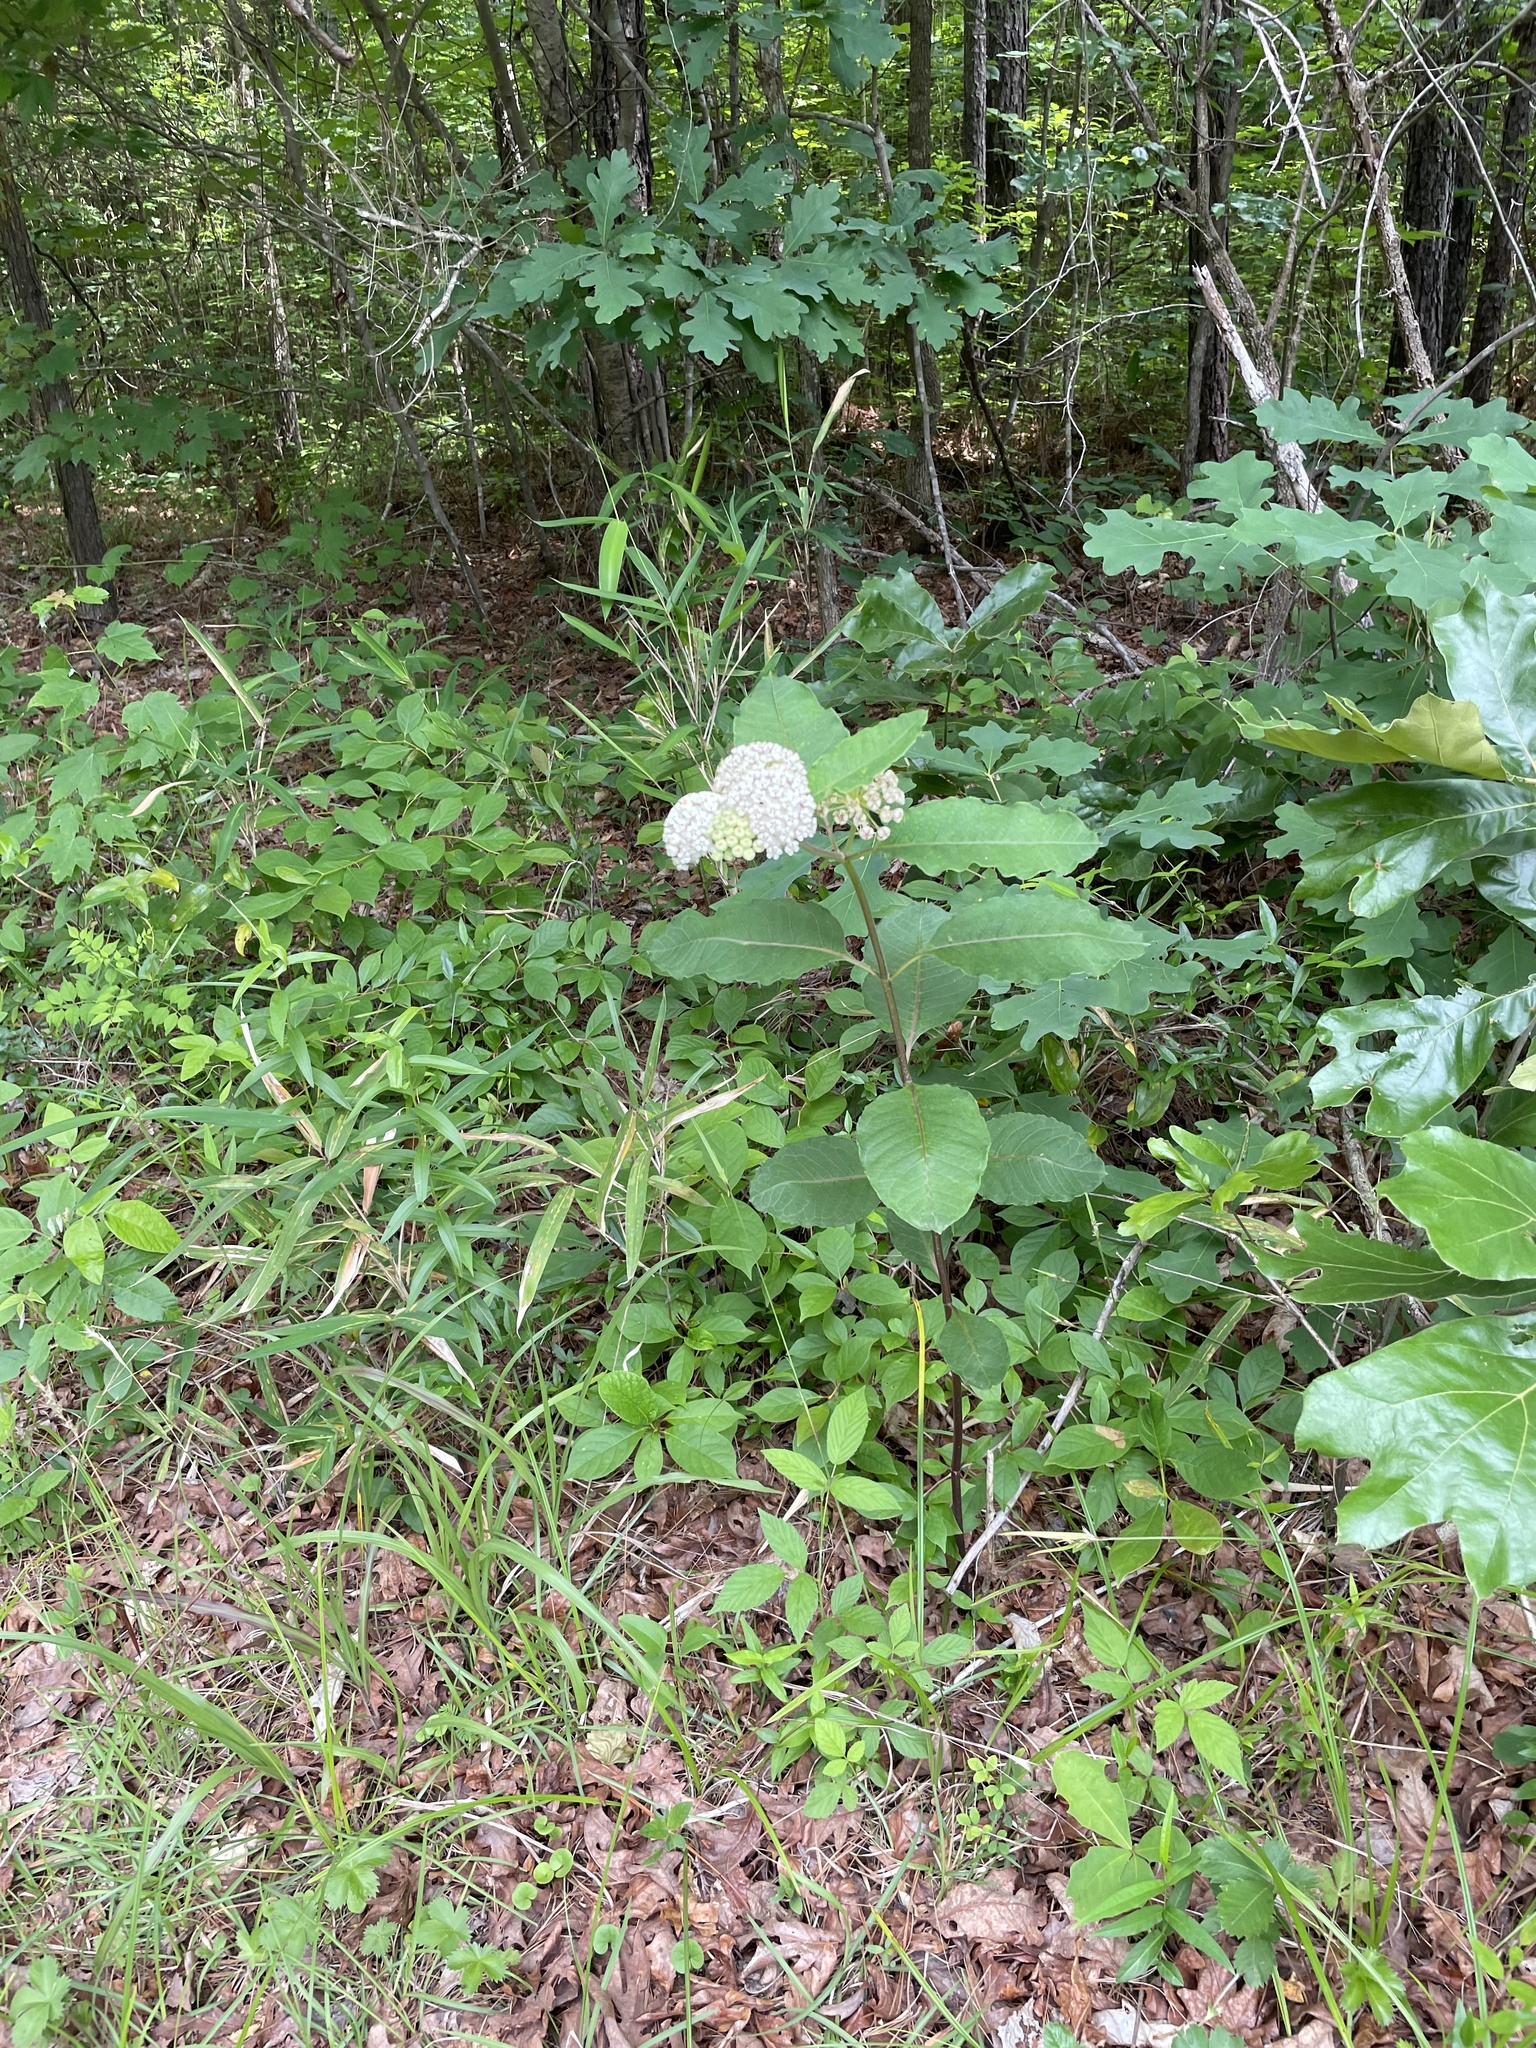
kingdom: Plantae
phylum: Tracheophyta
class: Magnoliopsida
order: Gentianales
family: Apocynaceae
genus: Asclepias
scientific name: Asclepias variegata
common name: Variegated milkweed
